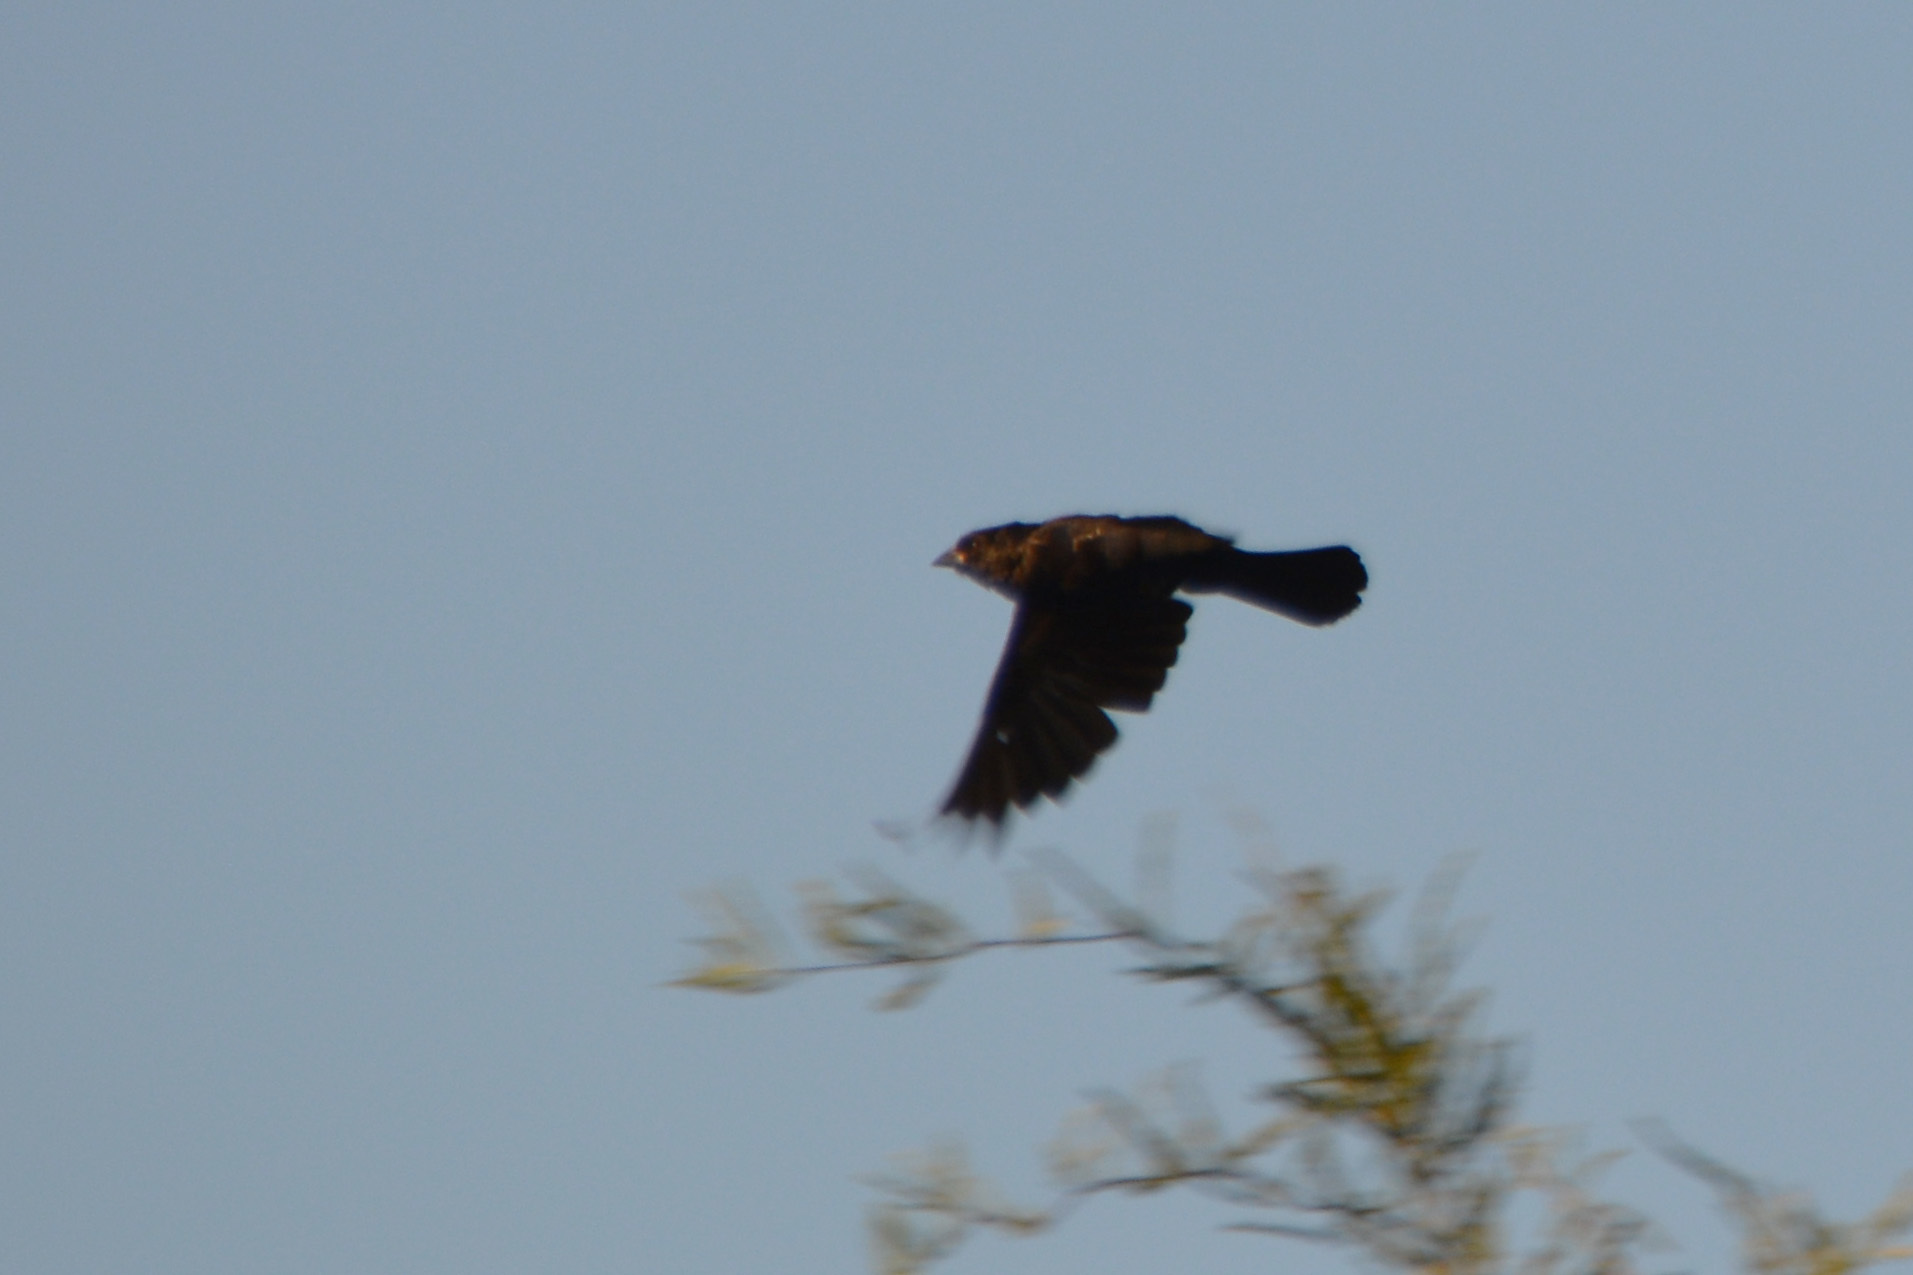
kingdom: Animalia
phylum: Chordata
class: Aves
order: Passeriformes
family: Icteridae
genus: Molothrus
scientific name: Molothrus bonariensis
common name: Shiny cowbird
